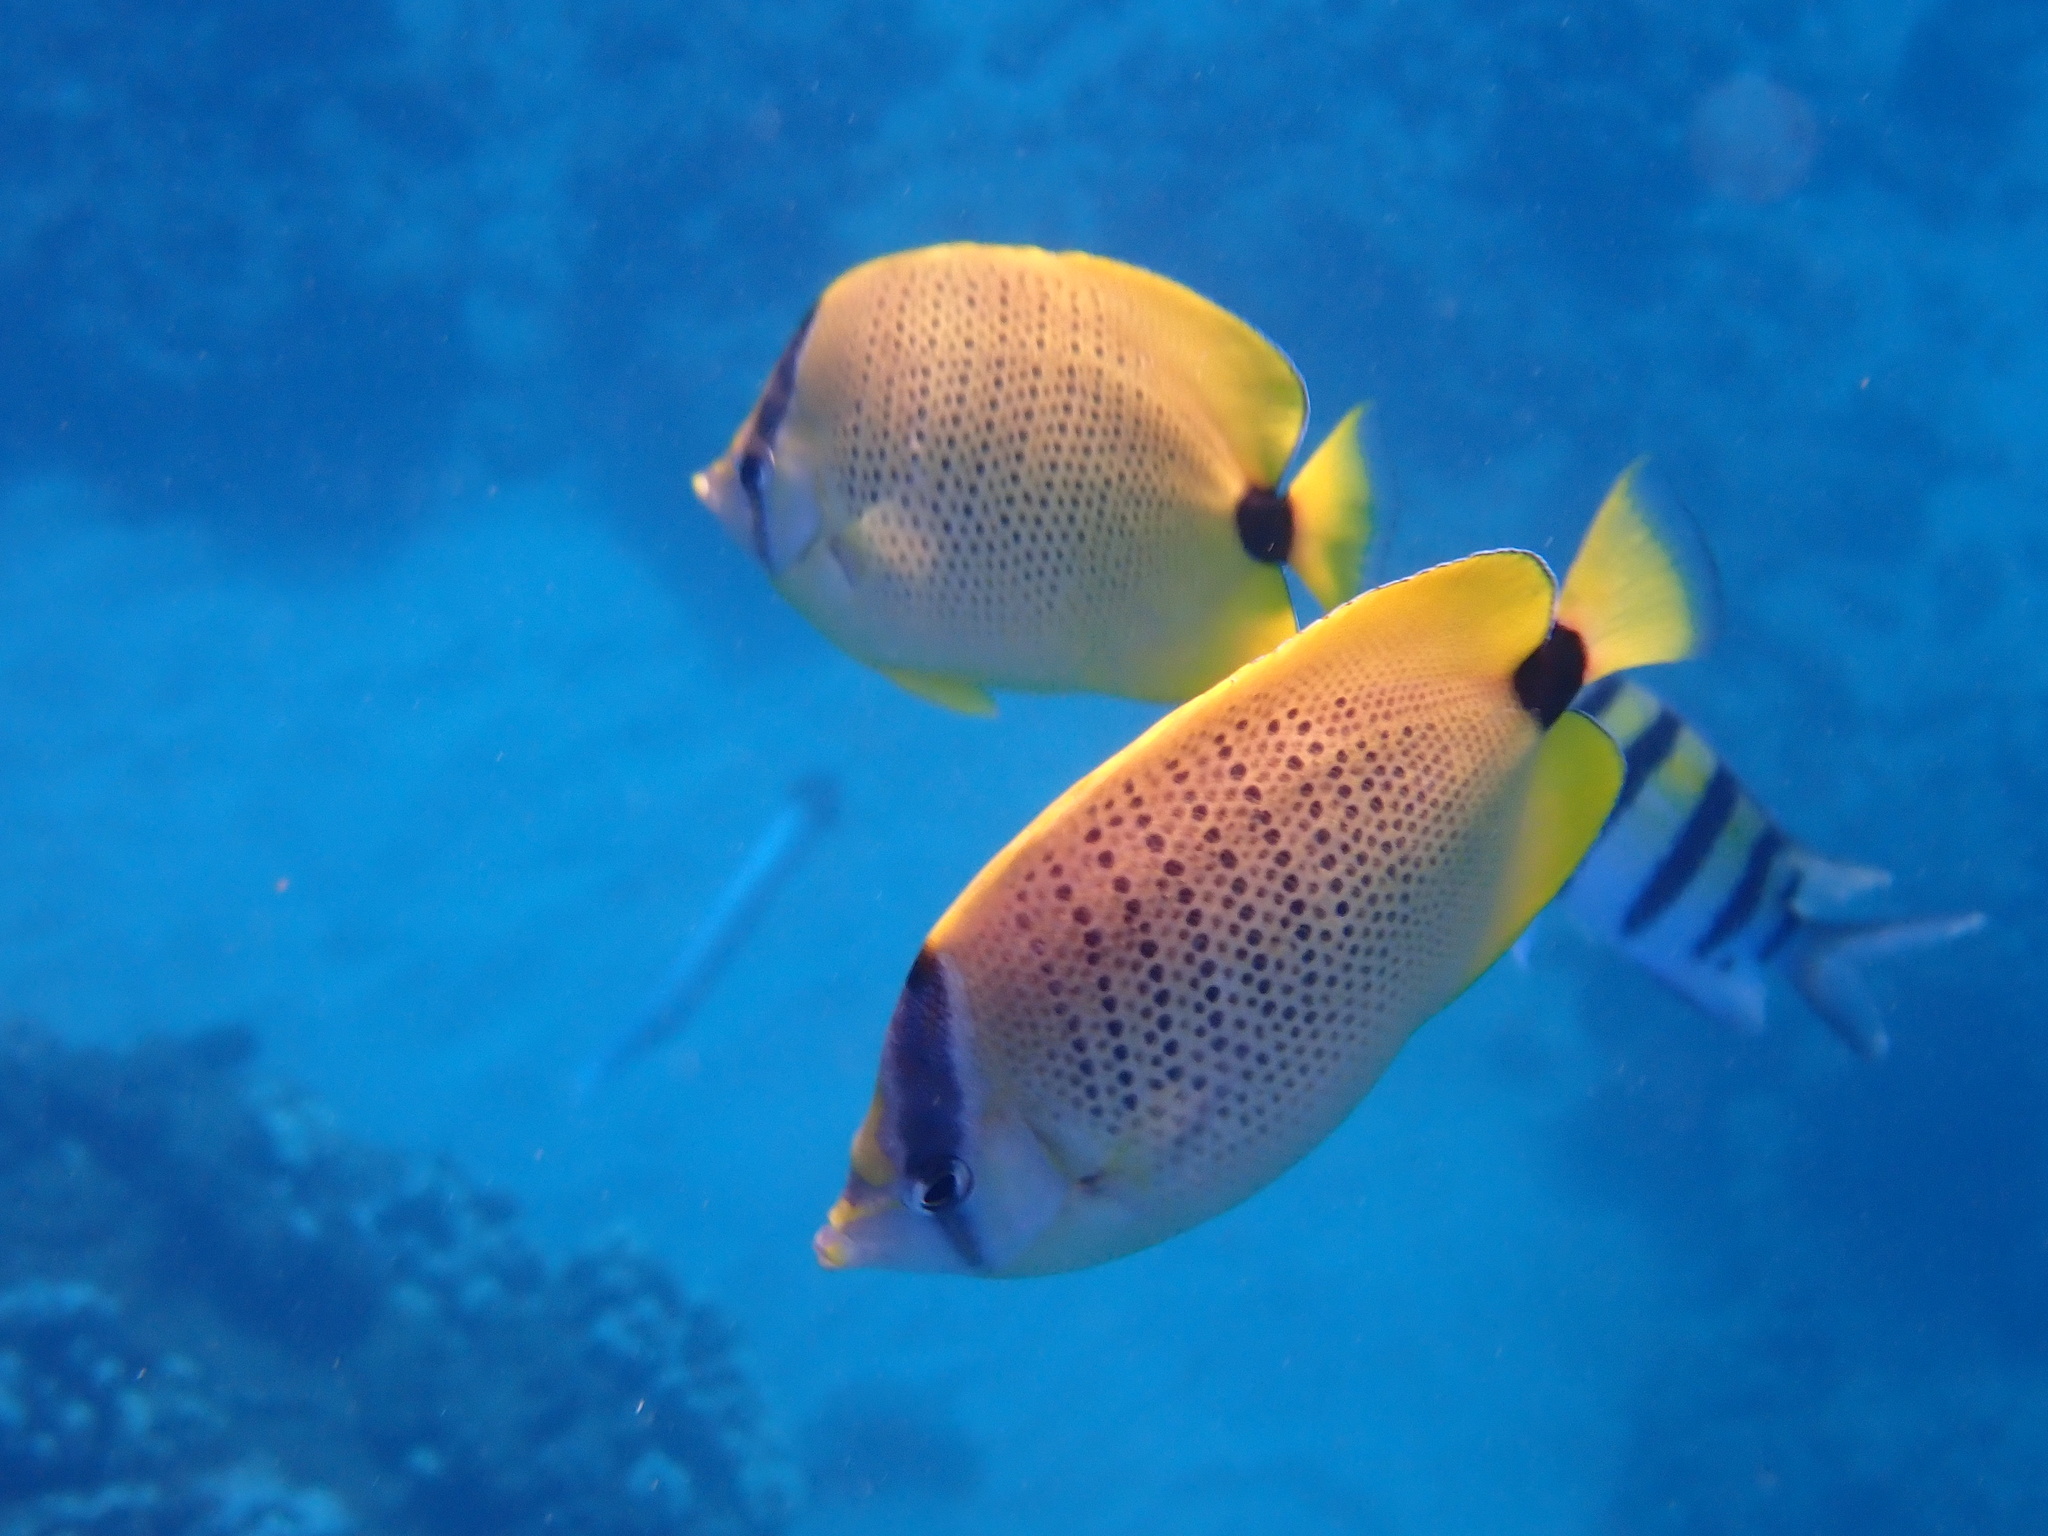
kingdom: Animalia
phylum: Chordata
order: Perciformes
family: Chaetodontidae
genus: Chaetodon
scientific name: Chaetodon miliaris
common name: Lemon butterflyfish
